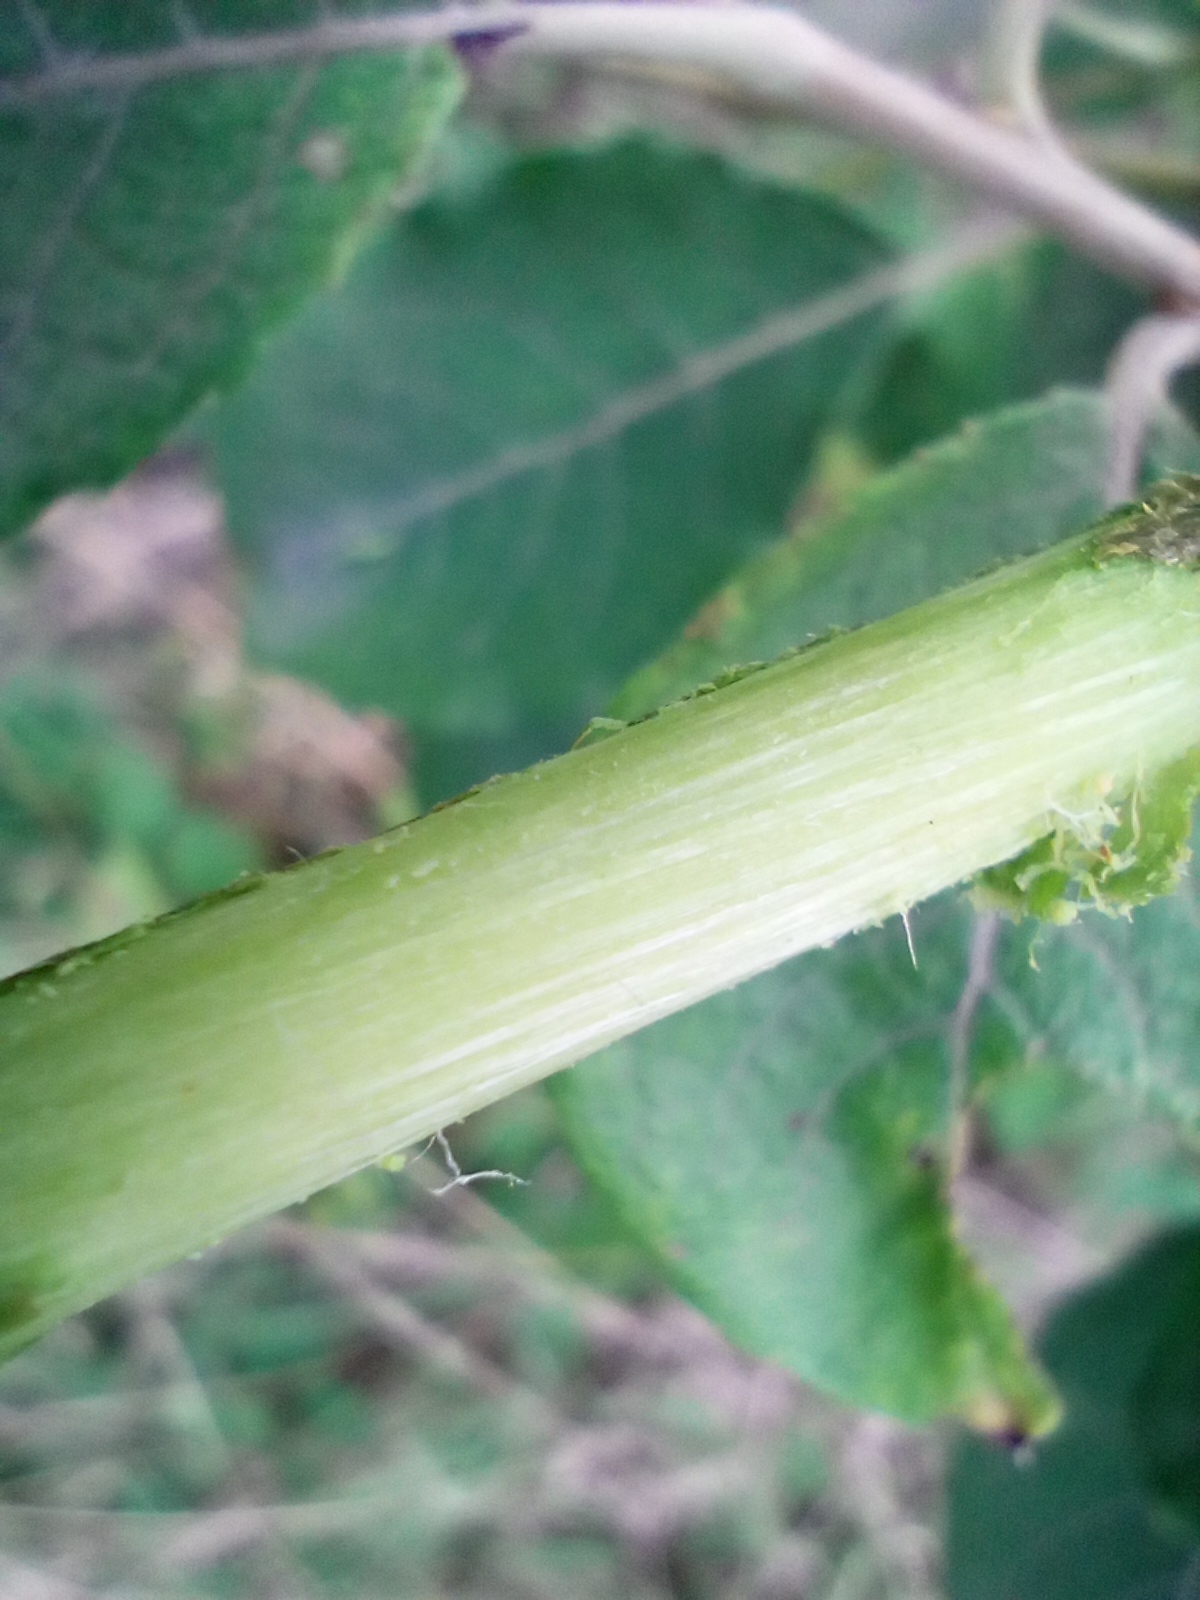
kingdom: Plantae
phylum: Tracheophyta
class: Magnoliopsida
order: Malpighiales
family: Salicaceae
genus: Salix
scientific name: Salix caprea
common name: Goat willow
